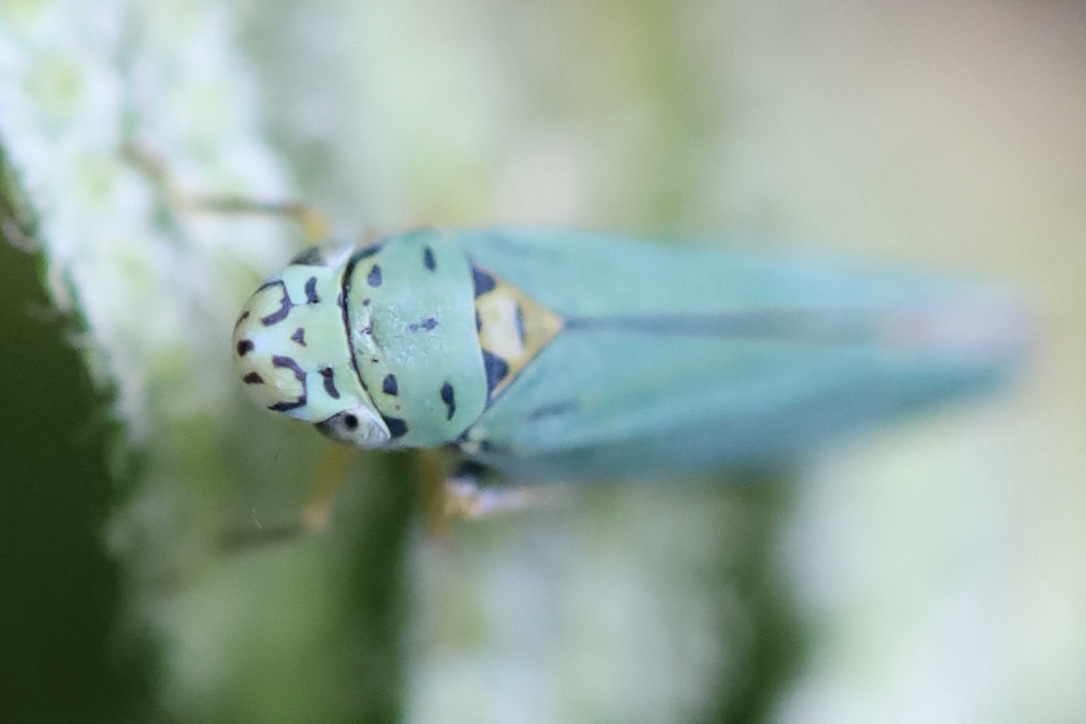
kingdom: Animalia
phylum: Arthropoda
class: Insecta
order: Hemiptera
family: Cicadellidae
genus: Graphocephala
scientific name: Graphocephala atropunctata
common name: Blue-green sharpshooter
